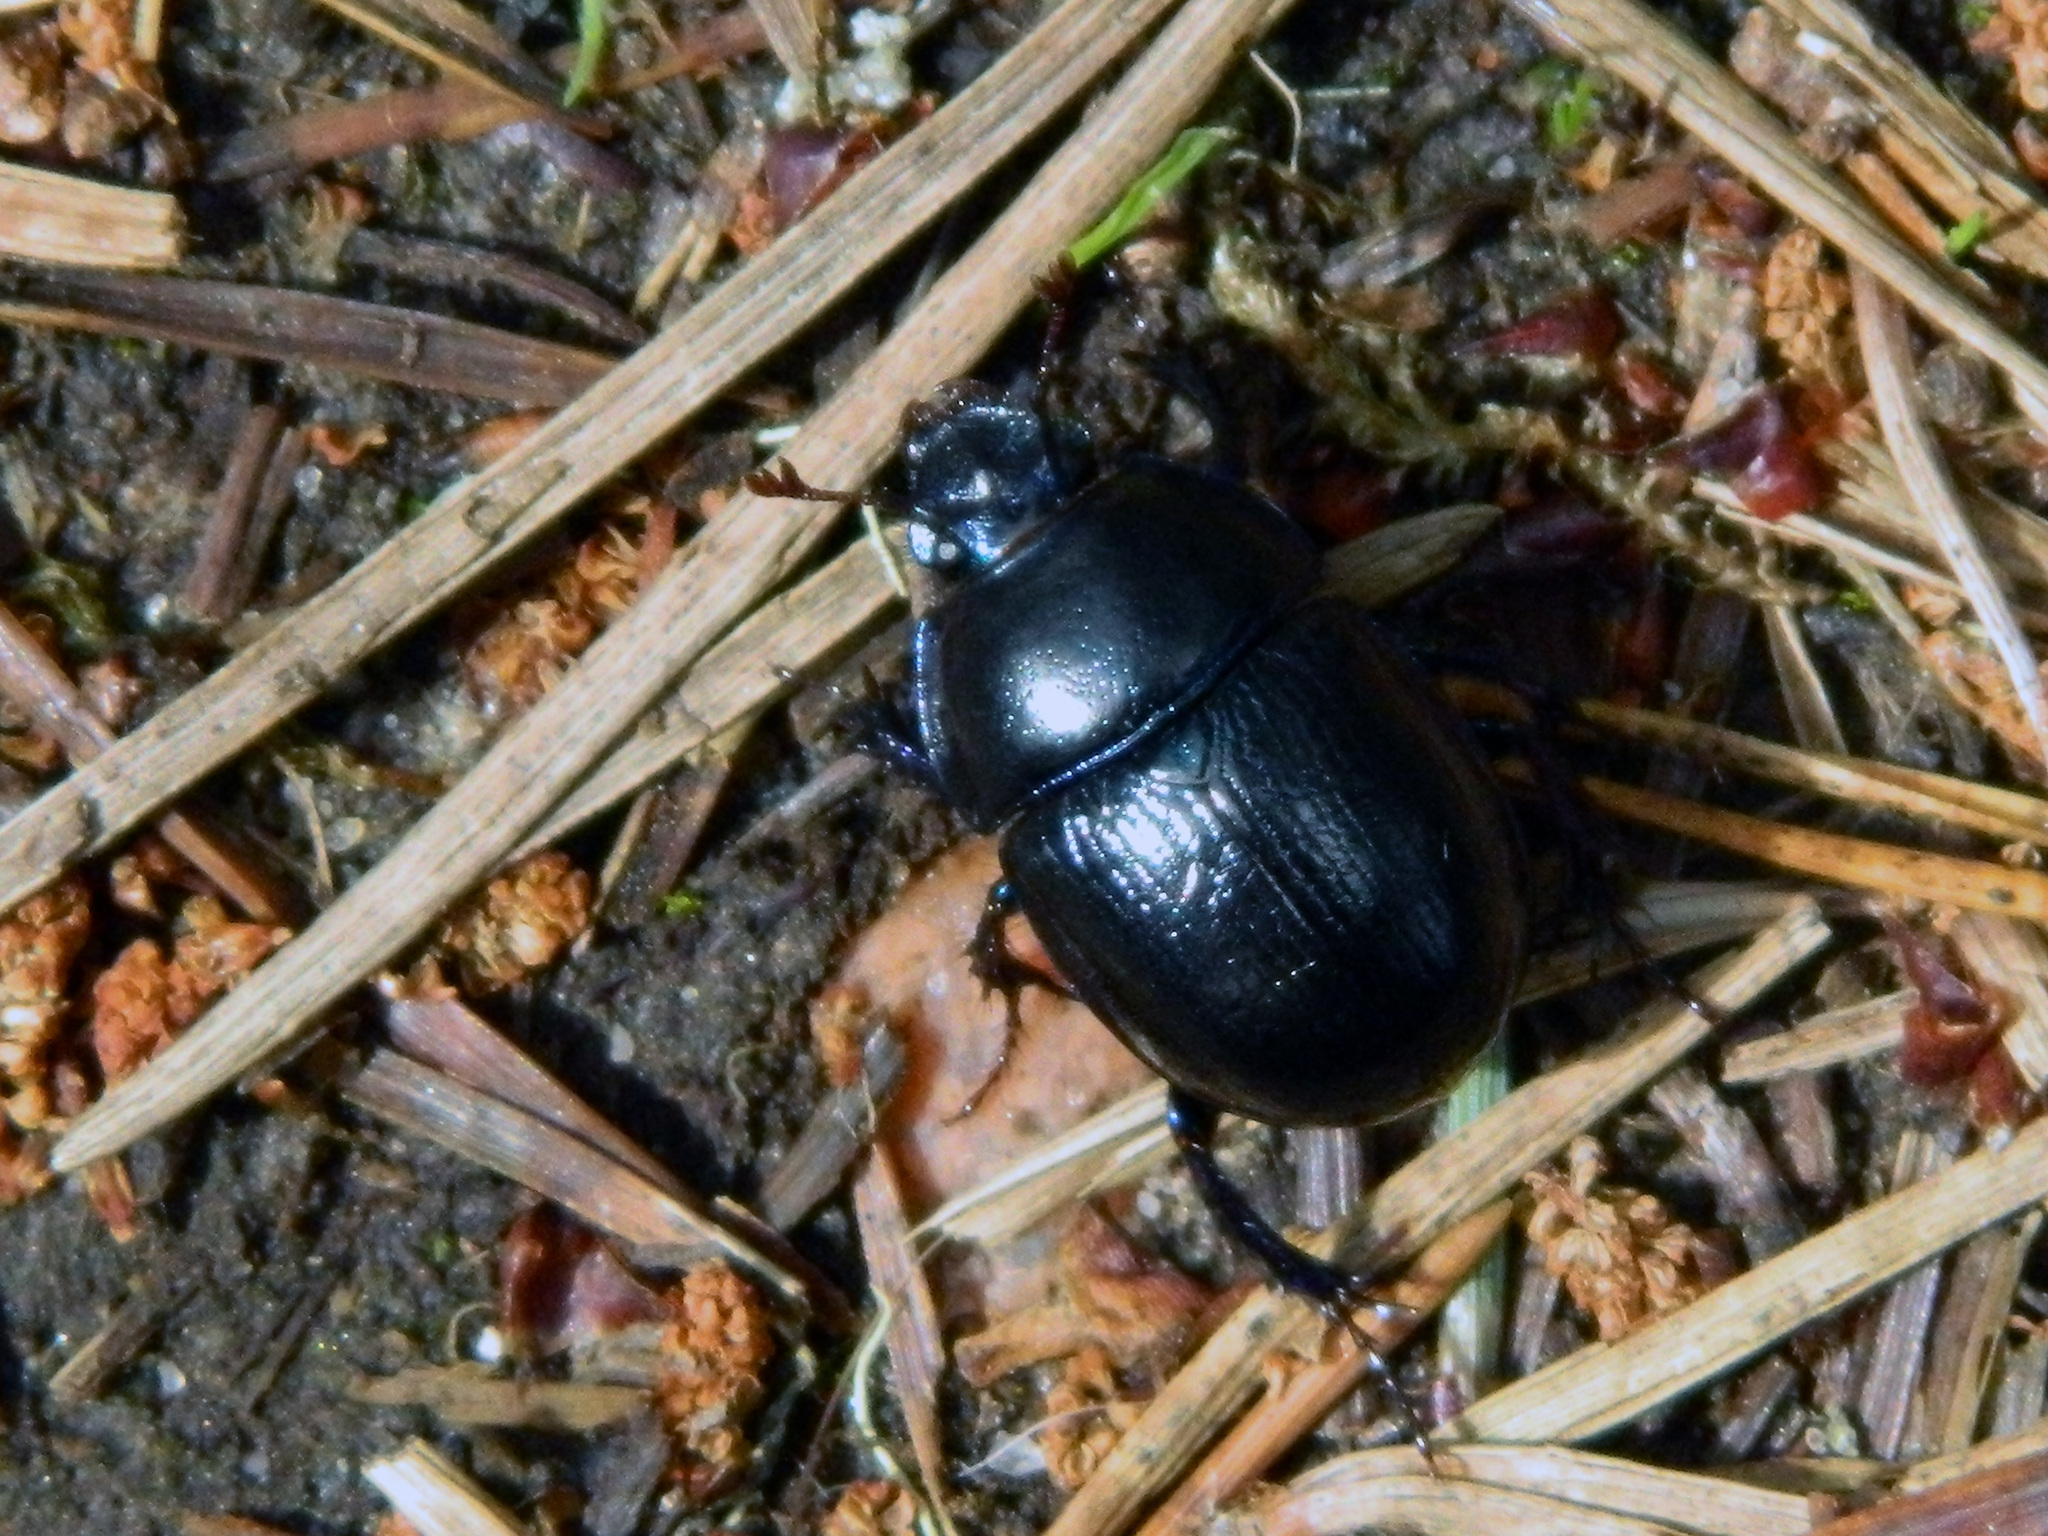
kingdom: Animalia
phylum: Arthropoda
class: Insecta
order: Coleoptera
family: Geotrupidae
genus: Anoplotrupes
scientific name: Anoplotrupes stercorosus
